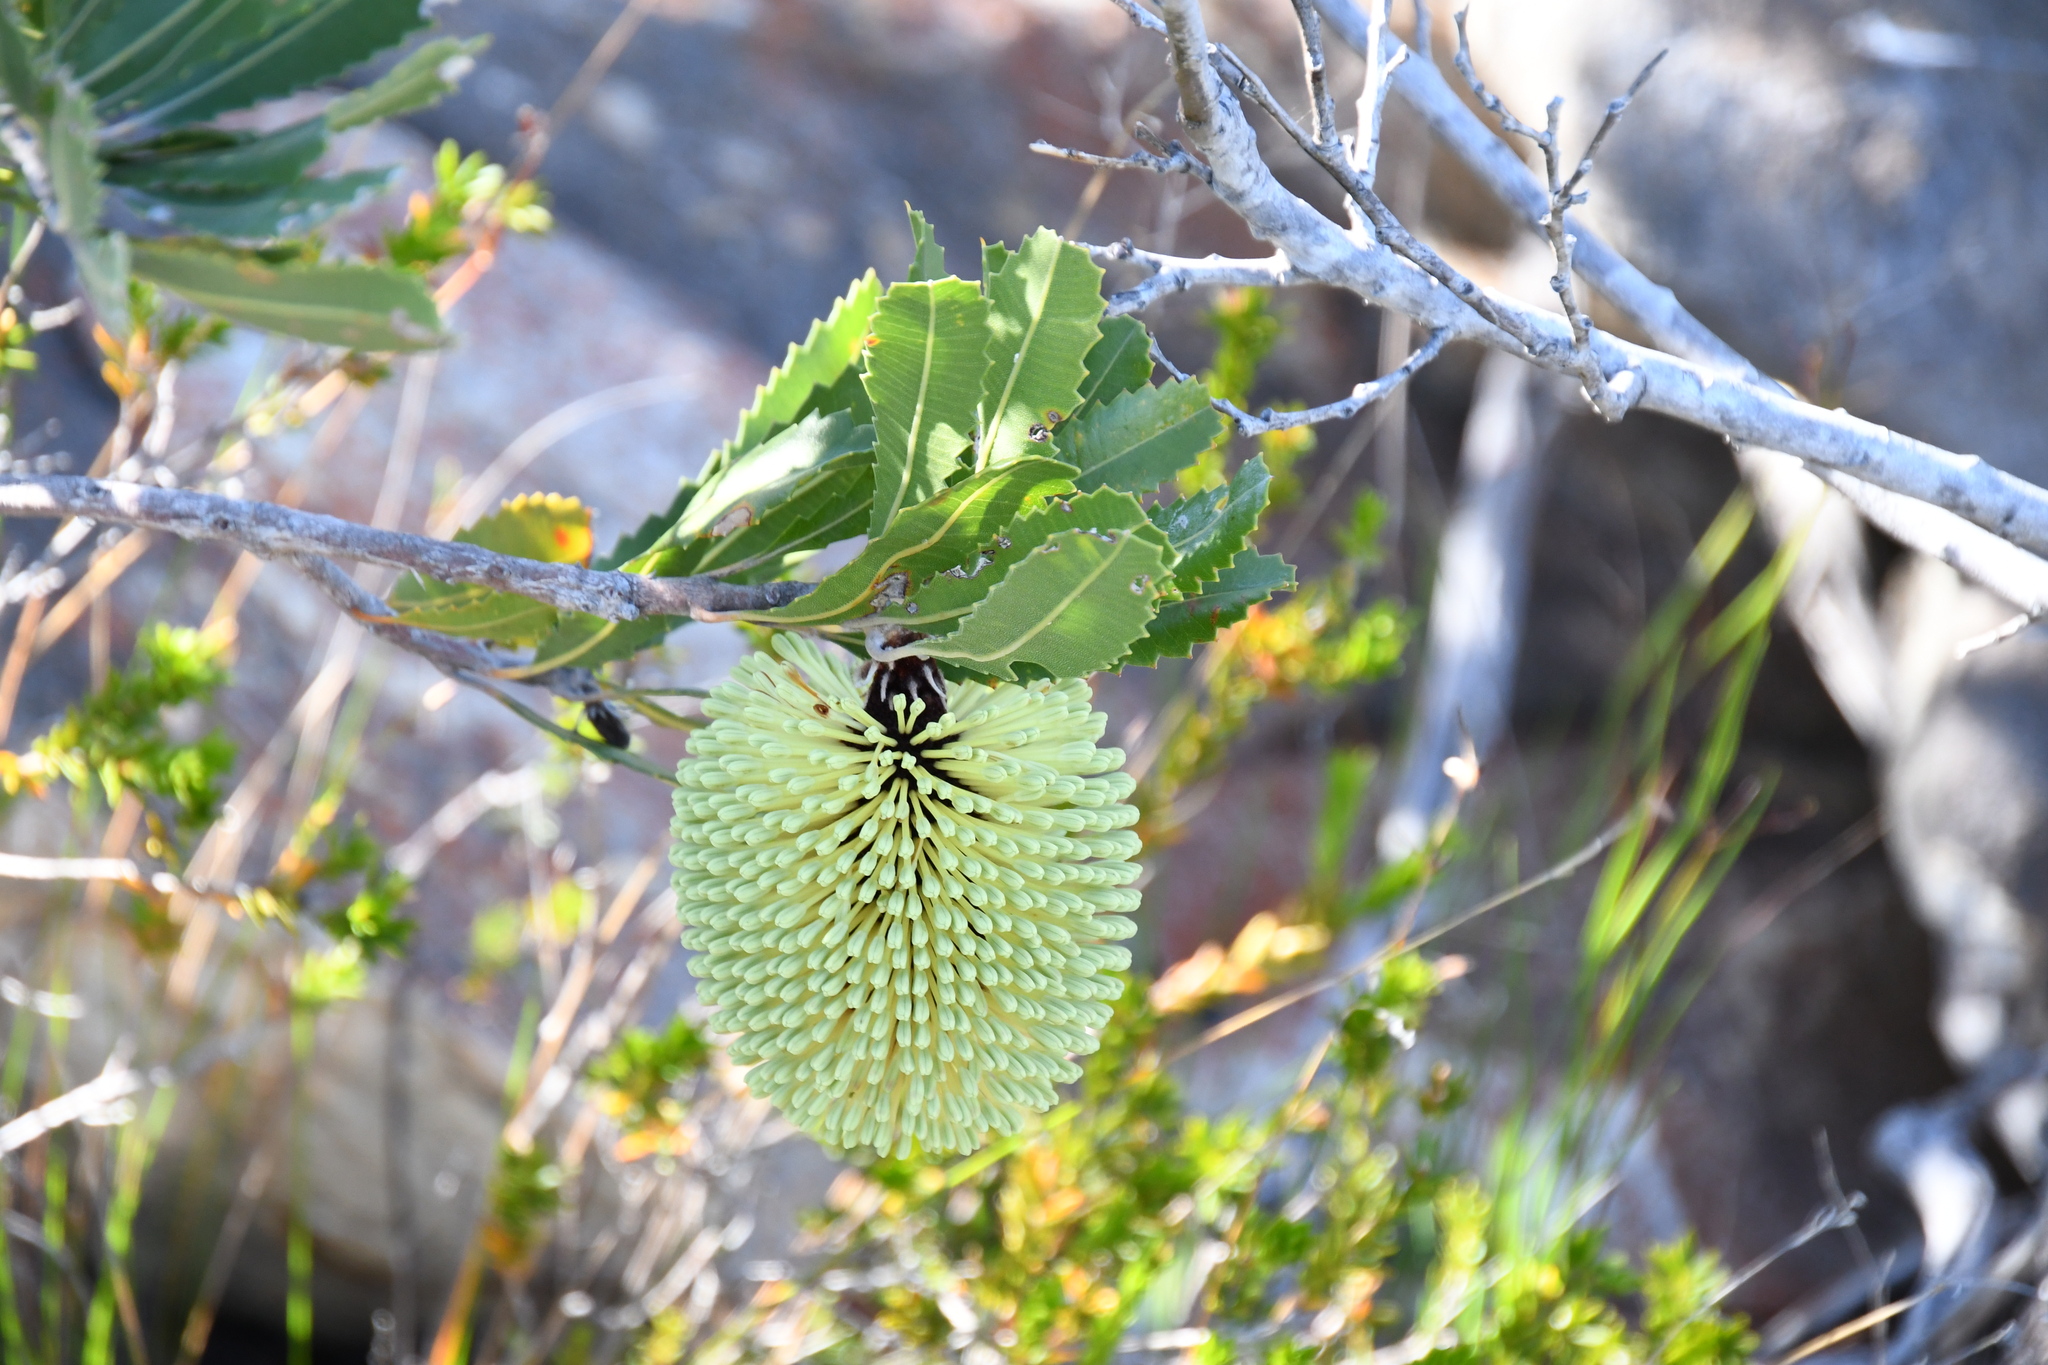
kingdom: Plantae
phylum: Tracheophyta
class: Magnoliopsida
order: Proteales
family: Proteaceae
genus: Banksia
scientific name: Banksia lemanniana
